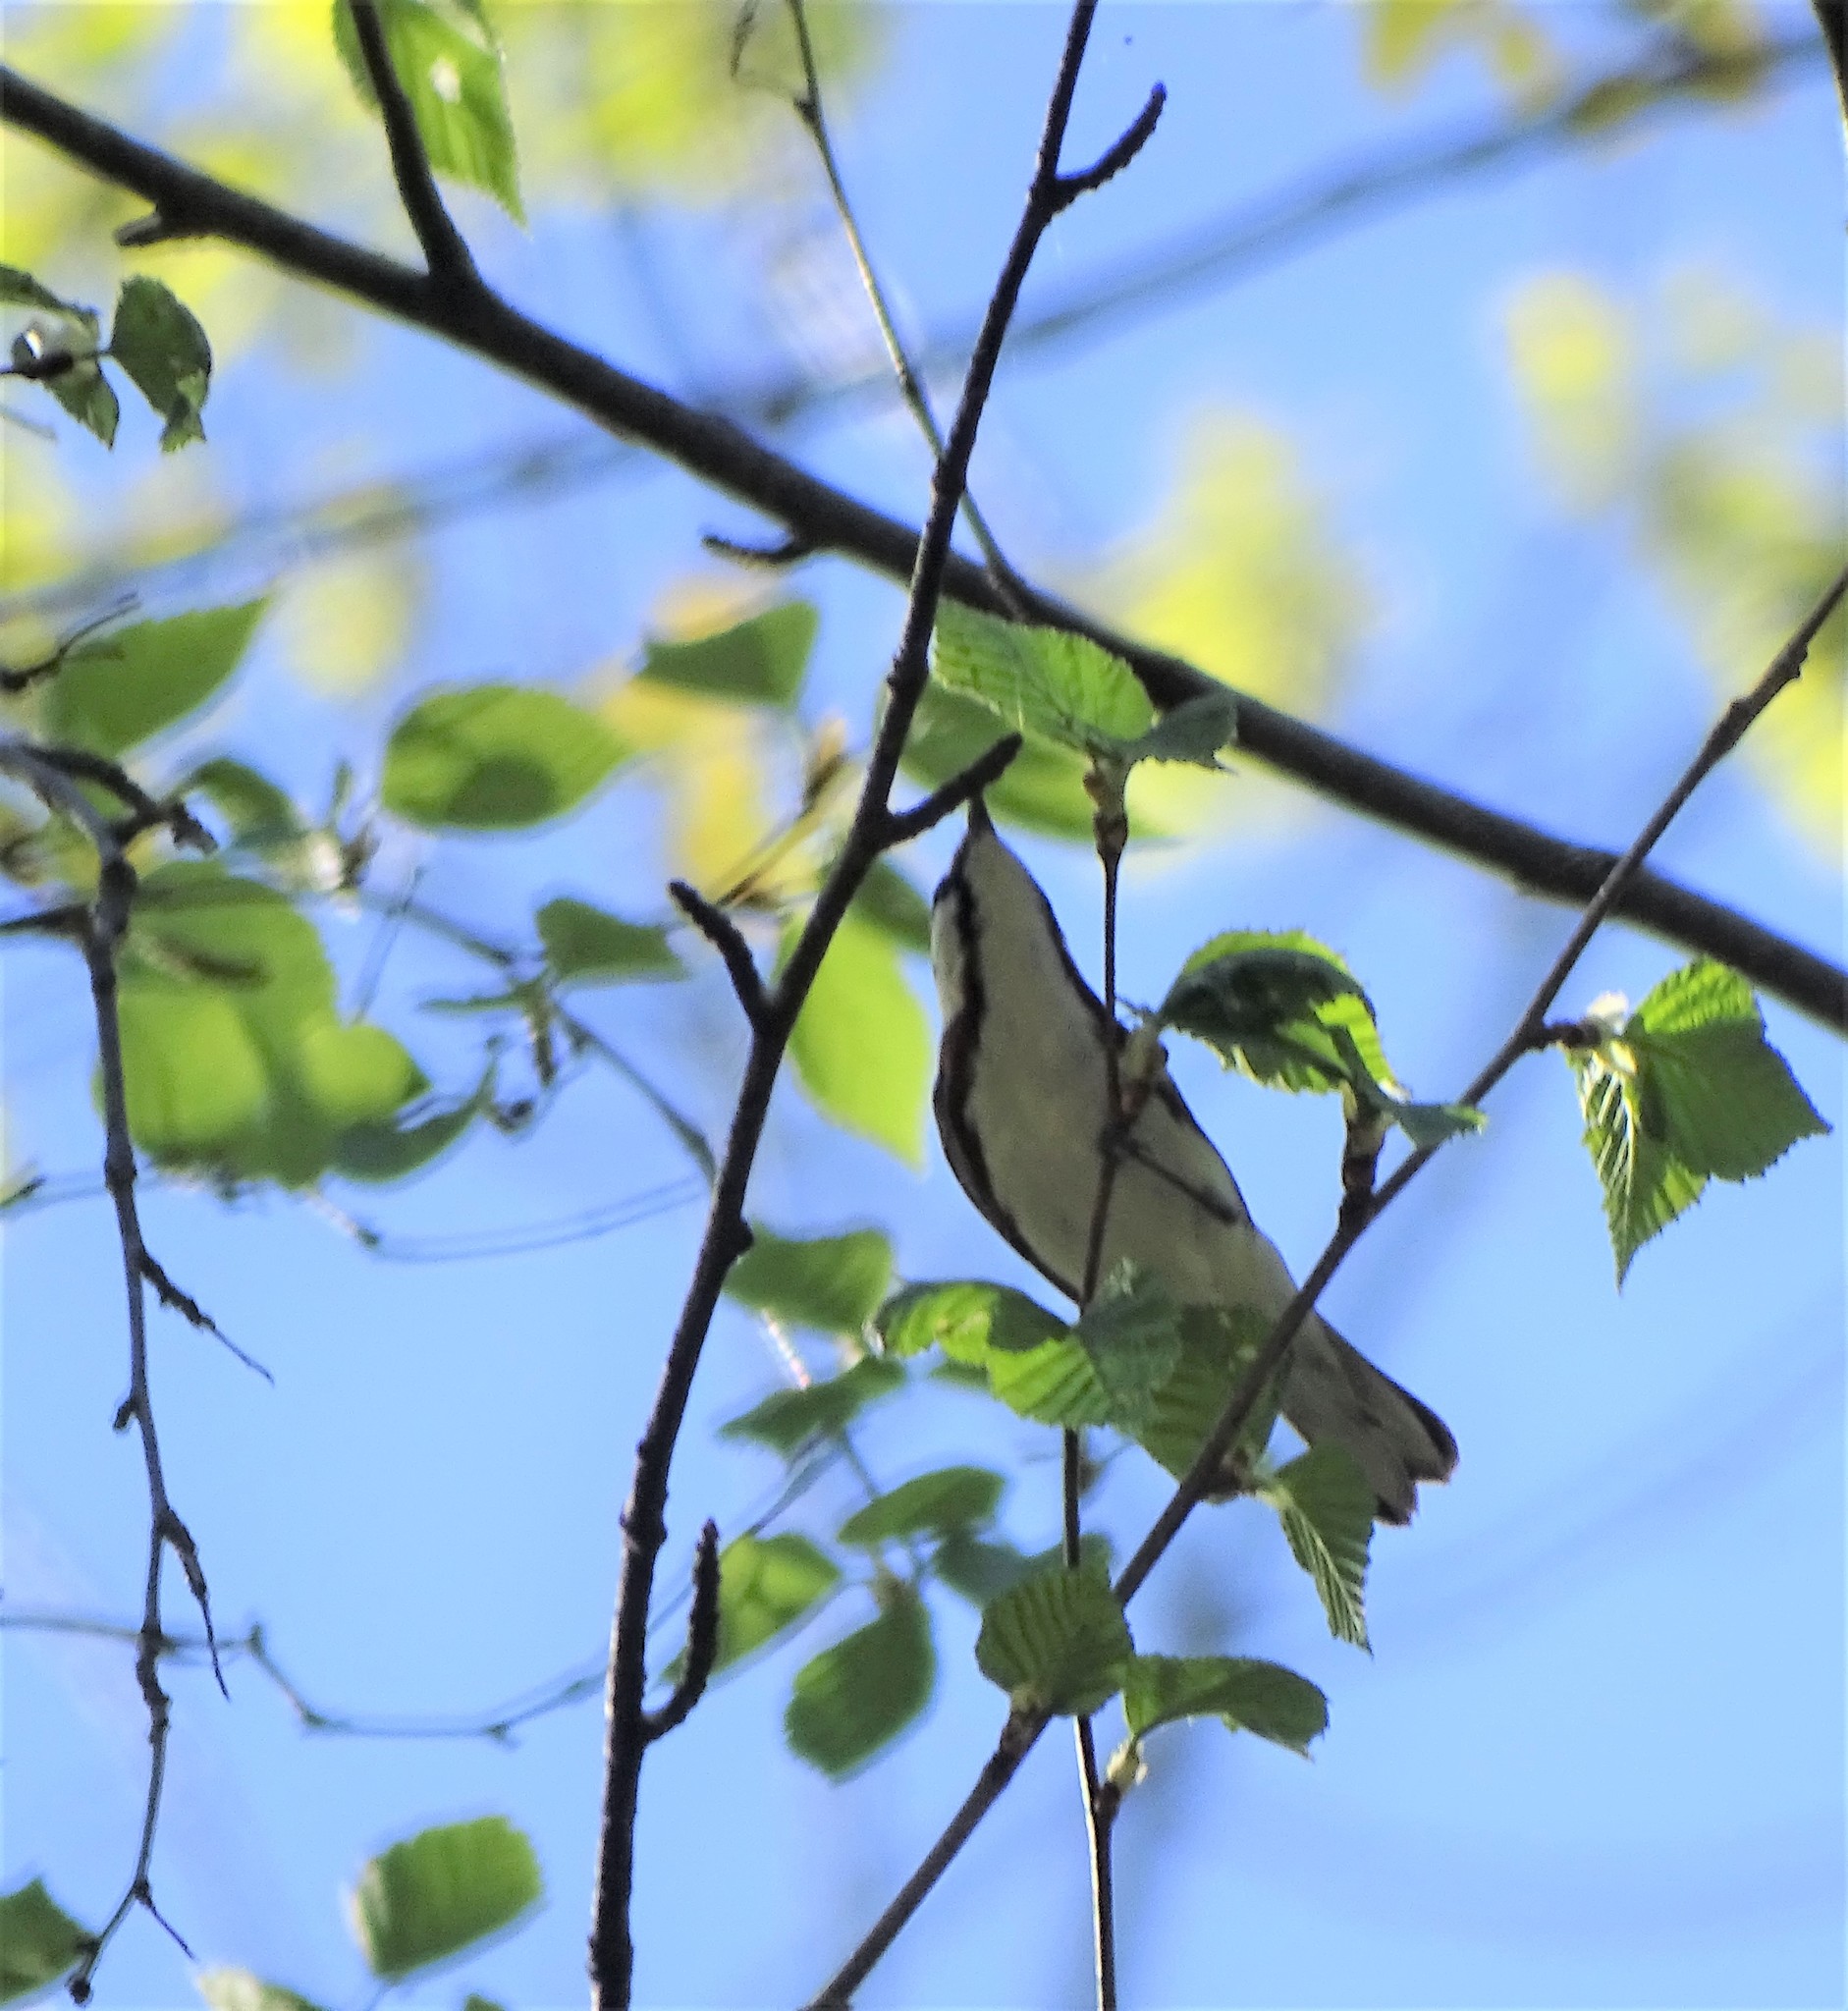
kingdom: Animalia
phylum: Chordata
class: Aves
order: Passeriformes
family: Parulidae
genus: Setophaga
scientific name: Setophaga pensylvanica
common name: Chestnut-sided warbler
